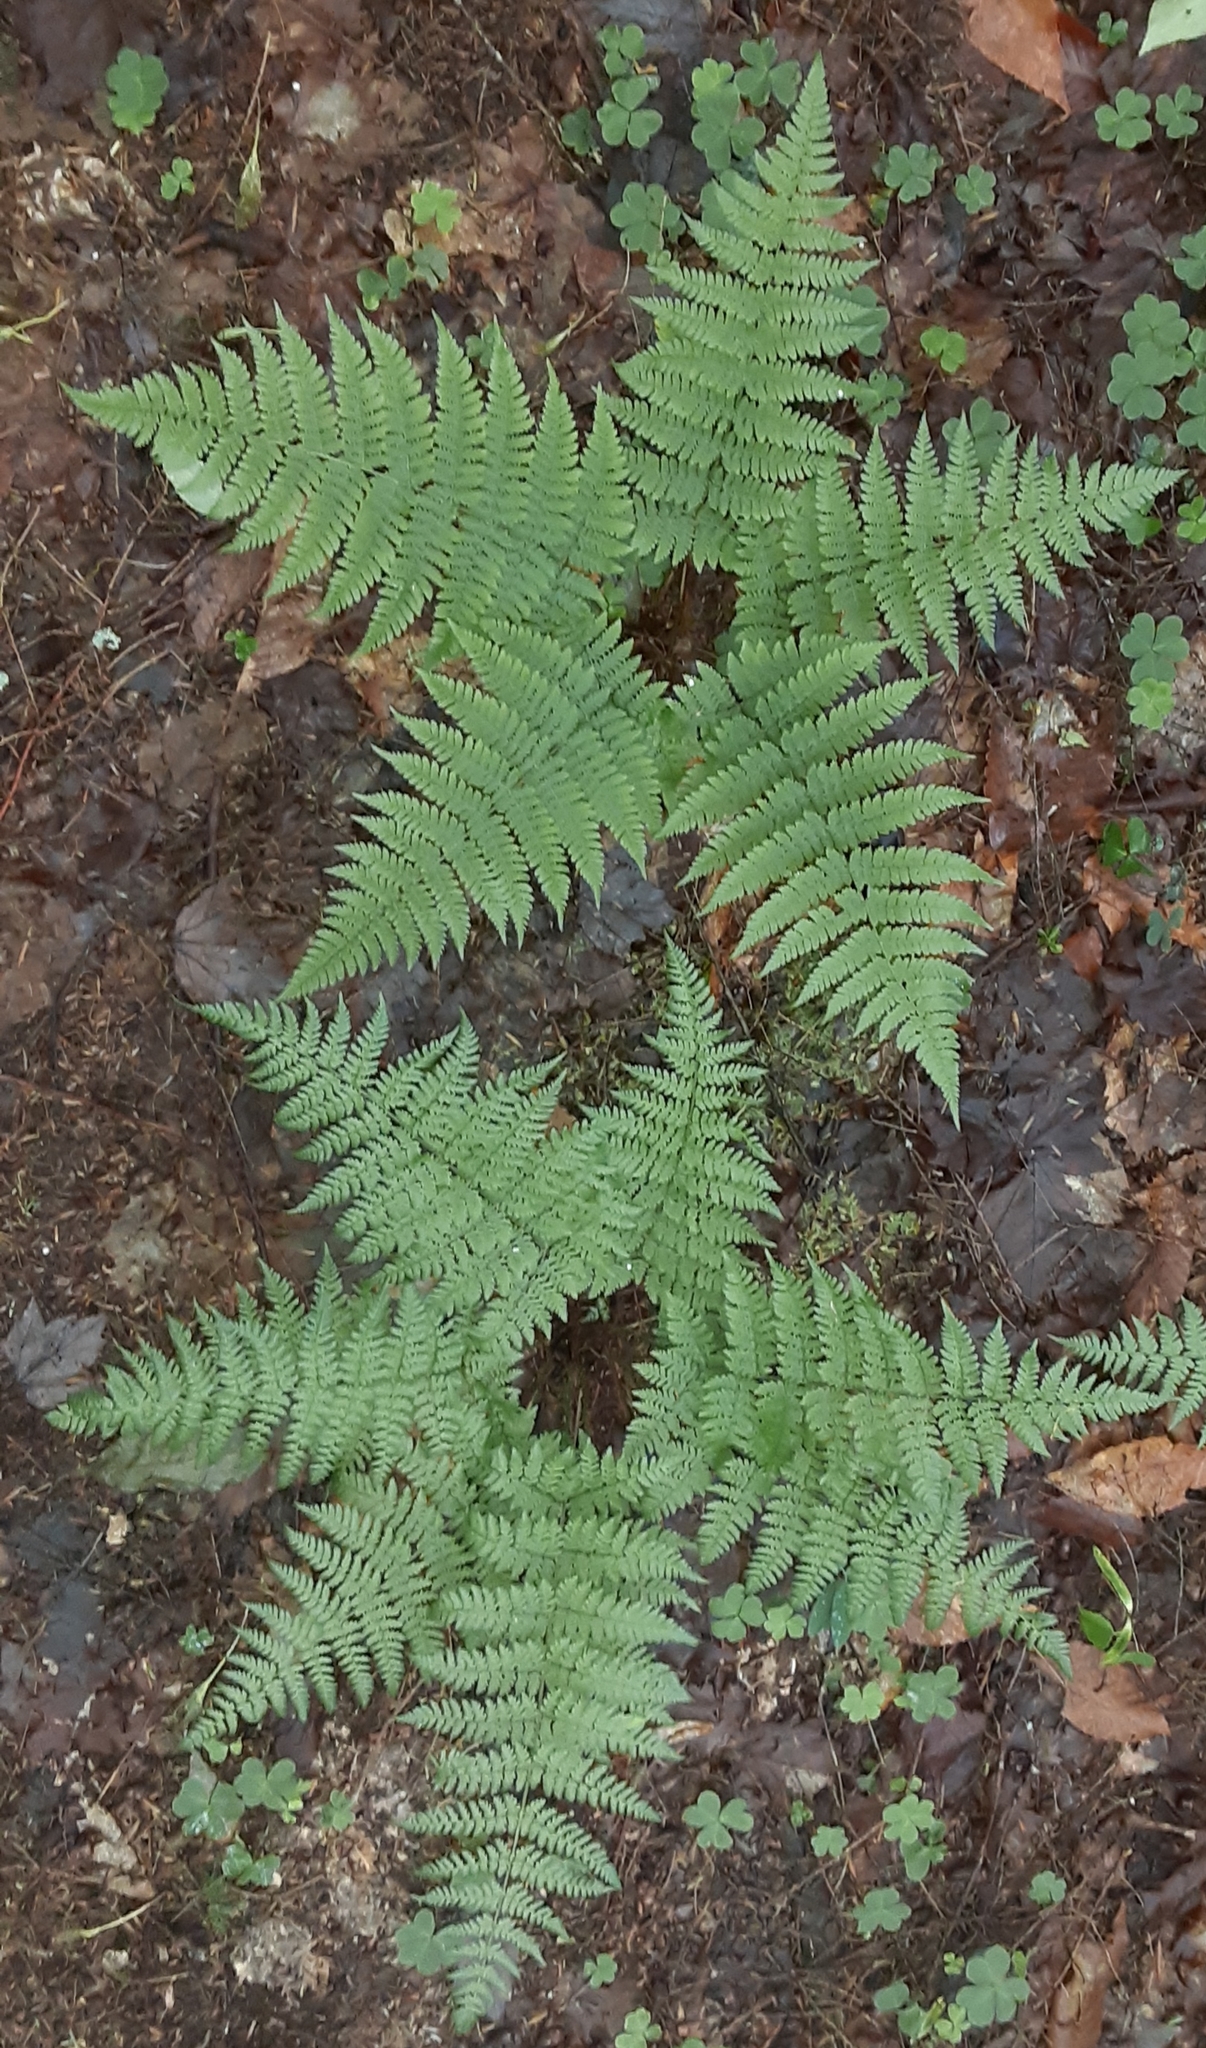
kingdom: Plantae
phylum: Tracheophyta
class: Polypodiopsida
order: Polypodiales
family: Dryopteridaceae
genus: Dryopteris
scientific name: Dryopteris intermedia
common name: Evergreen wood fern
